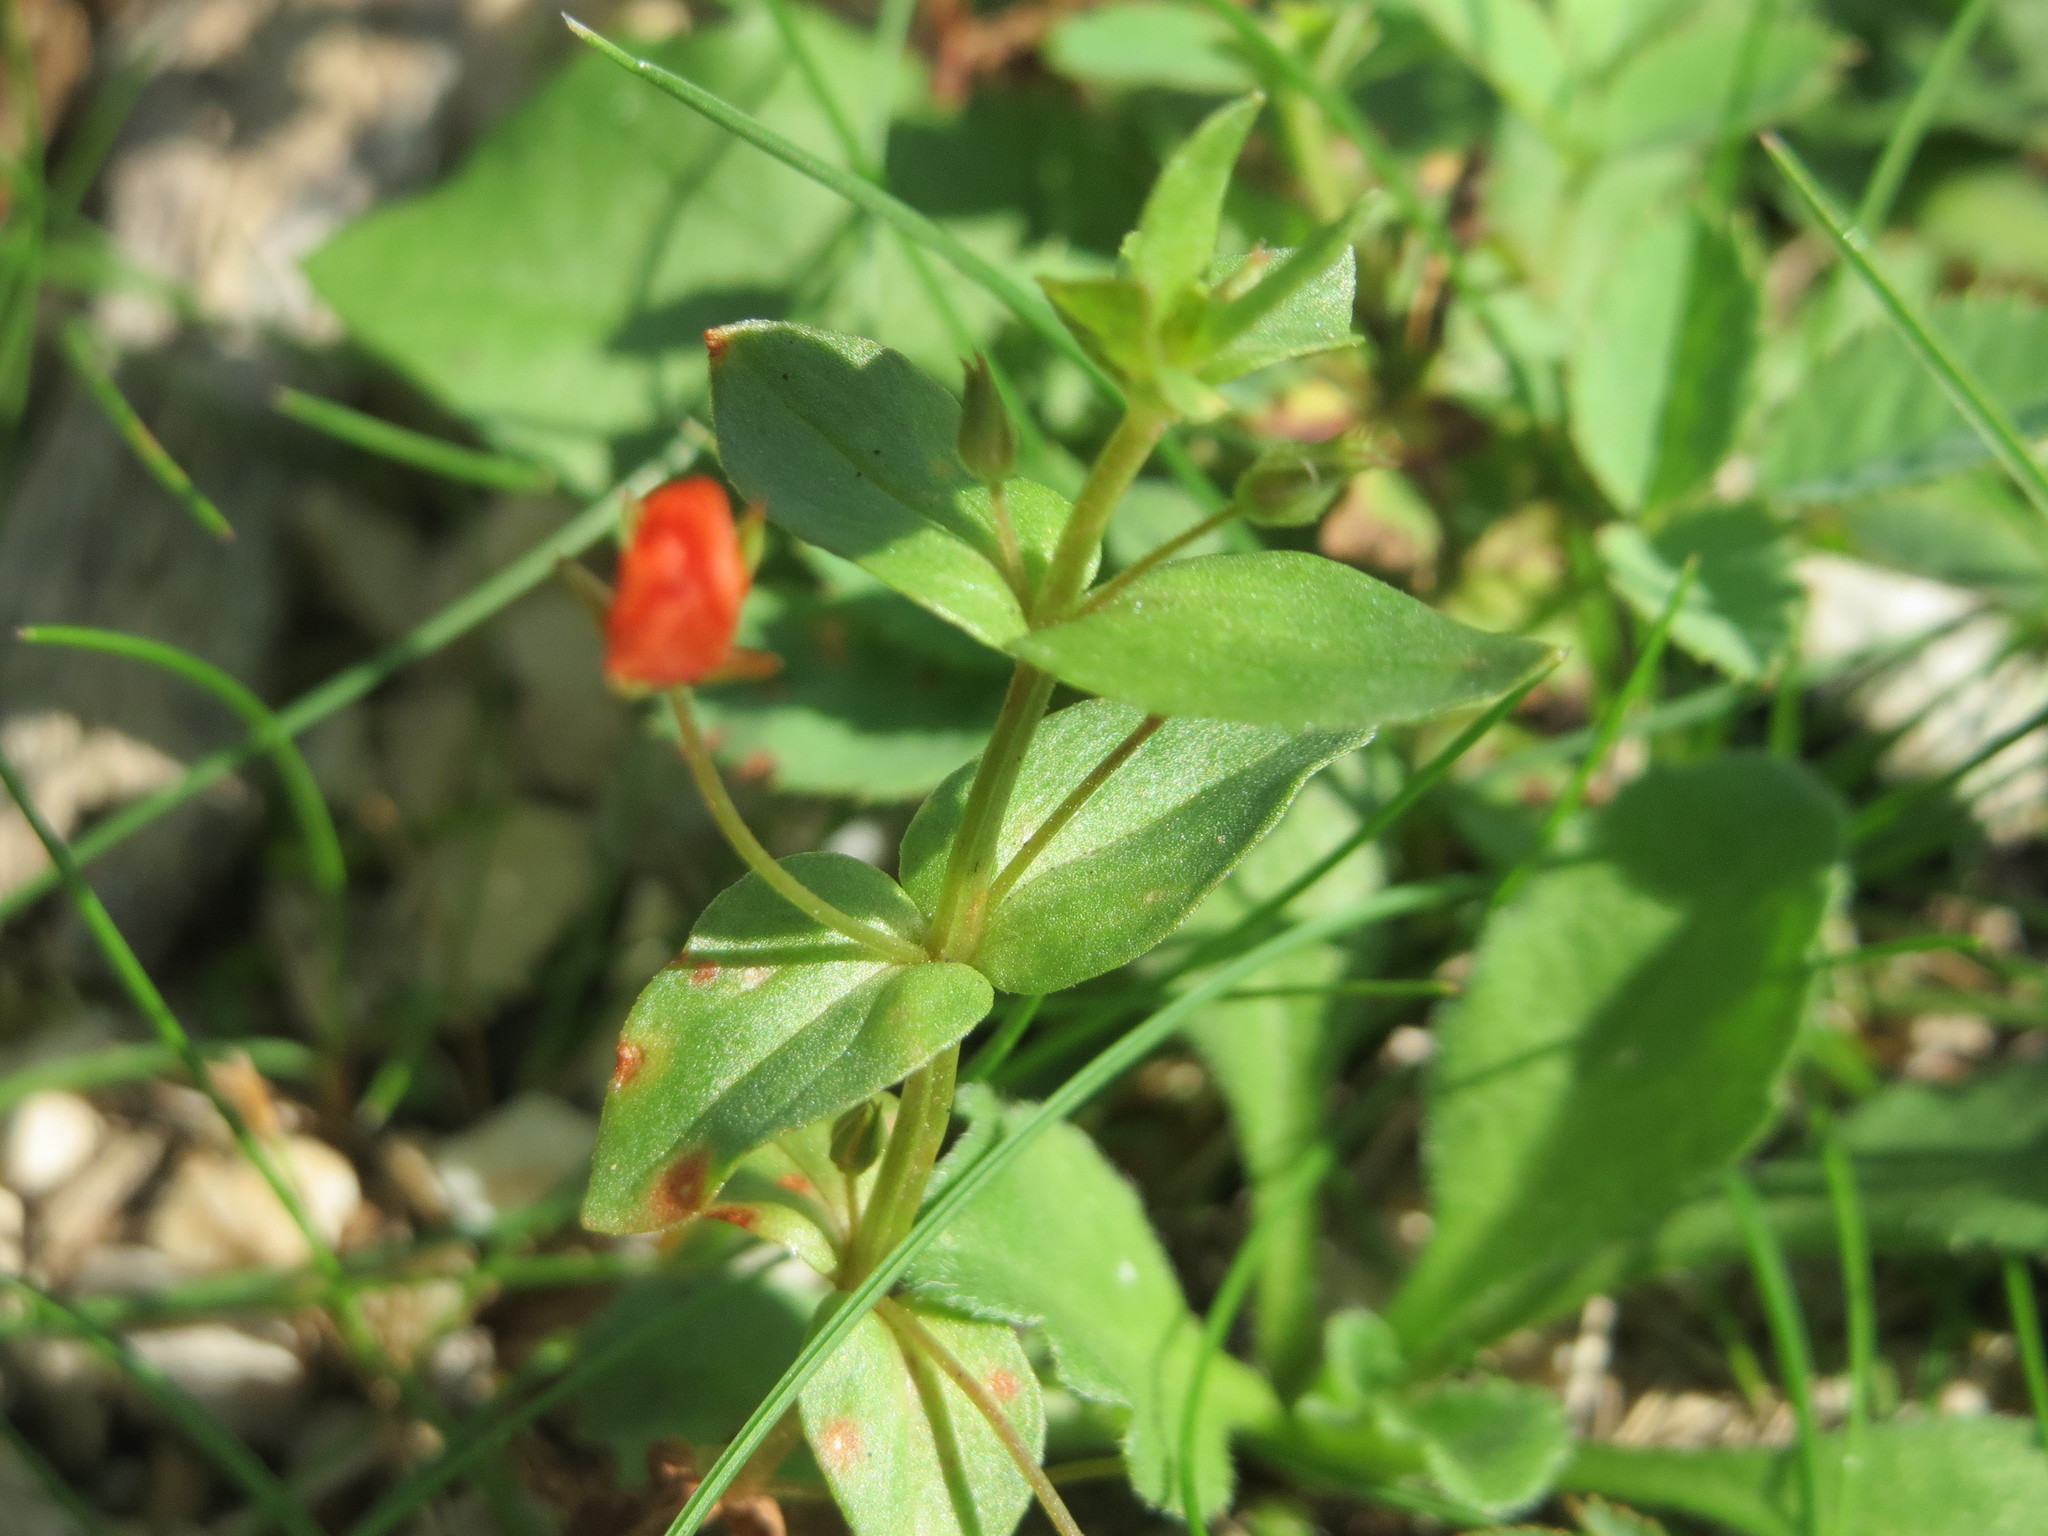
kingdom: Plantae
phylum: Tracheophyta
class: Magnoliopsida
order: Ericales
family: Primulaceae
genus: Lysimachia
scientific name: Lysimachia arvensis
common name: Scarlet pimpernel
